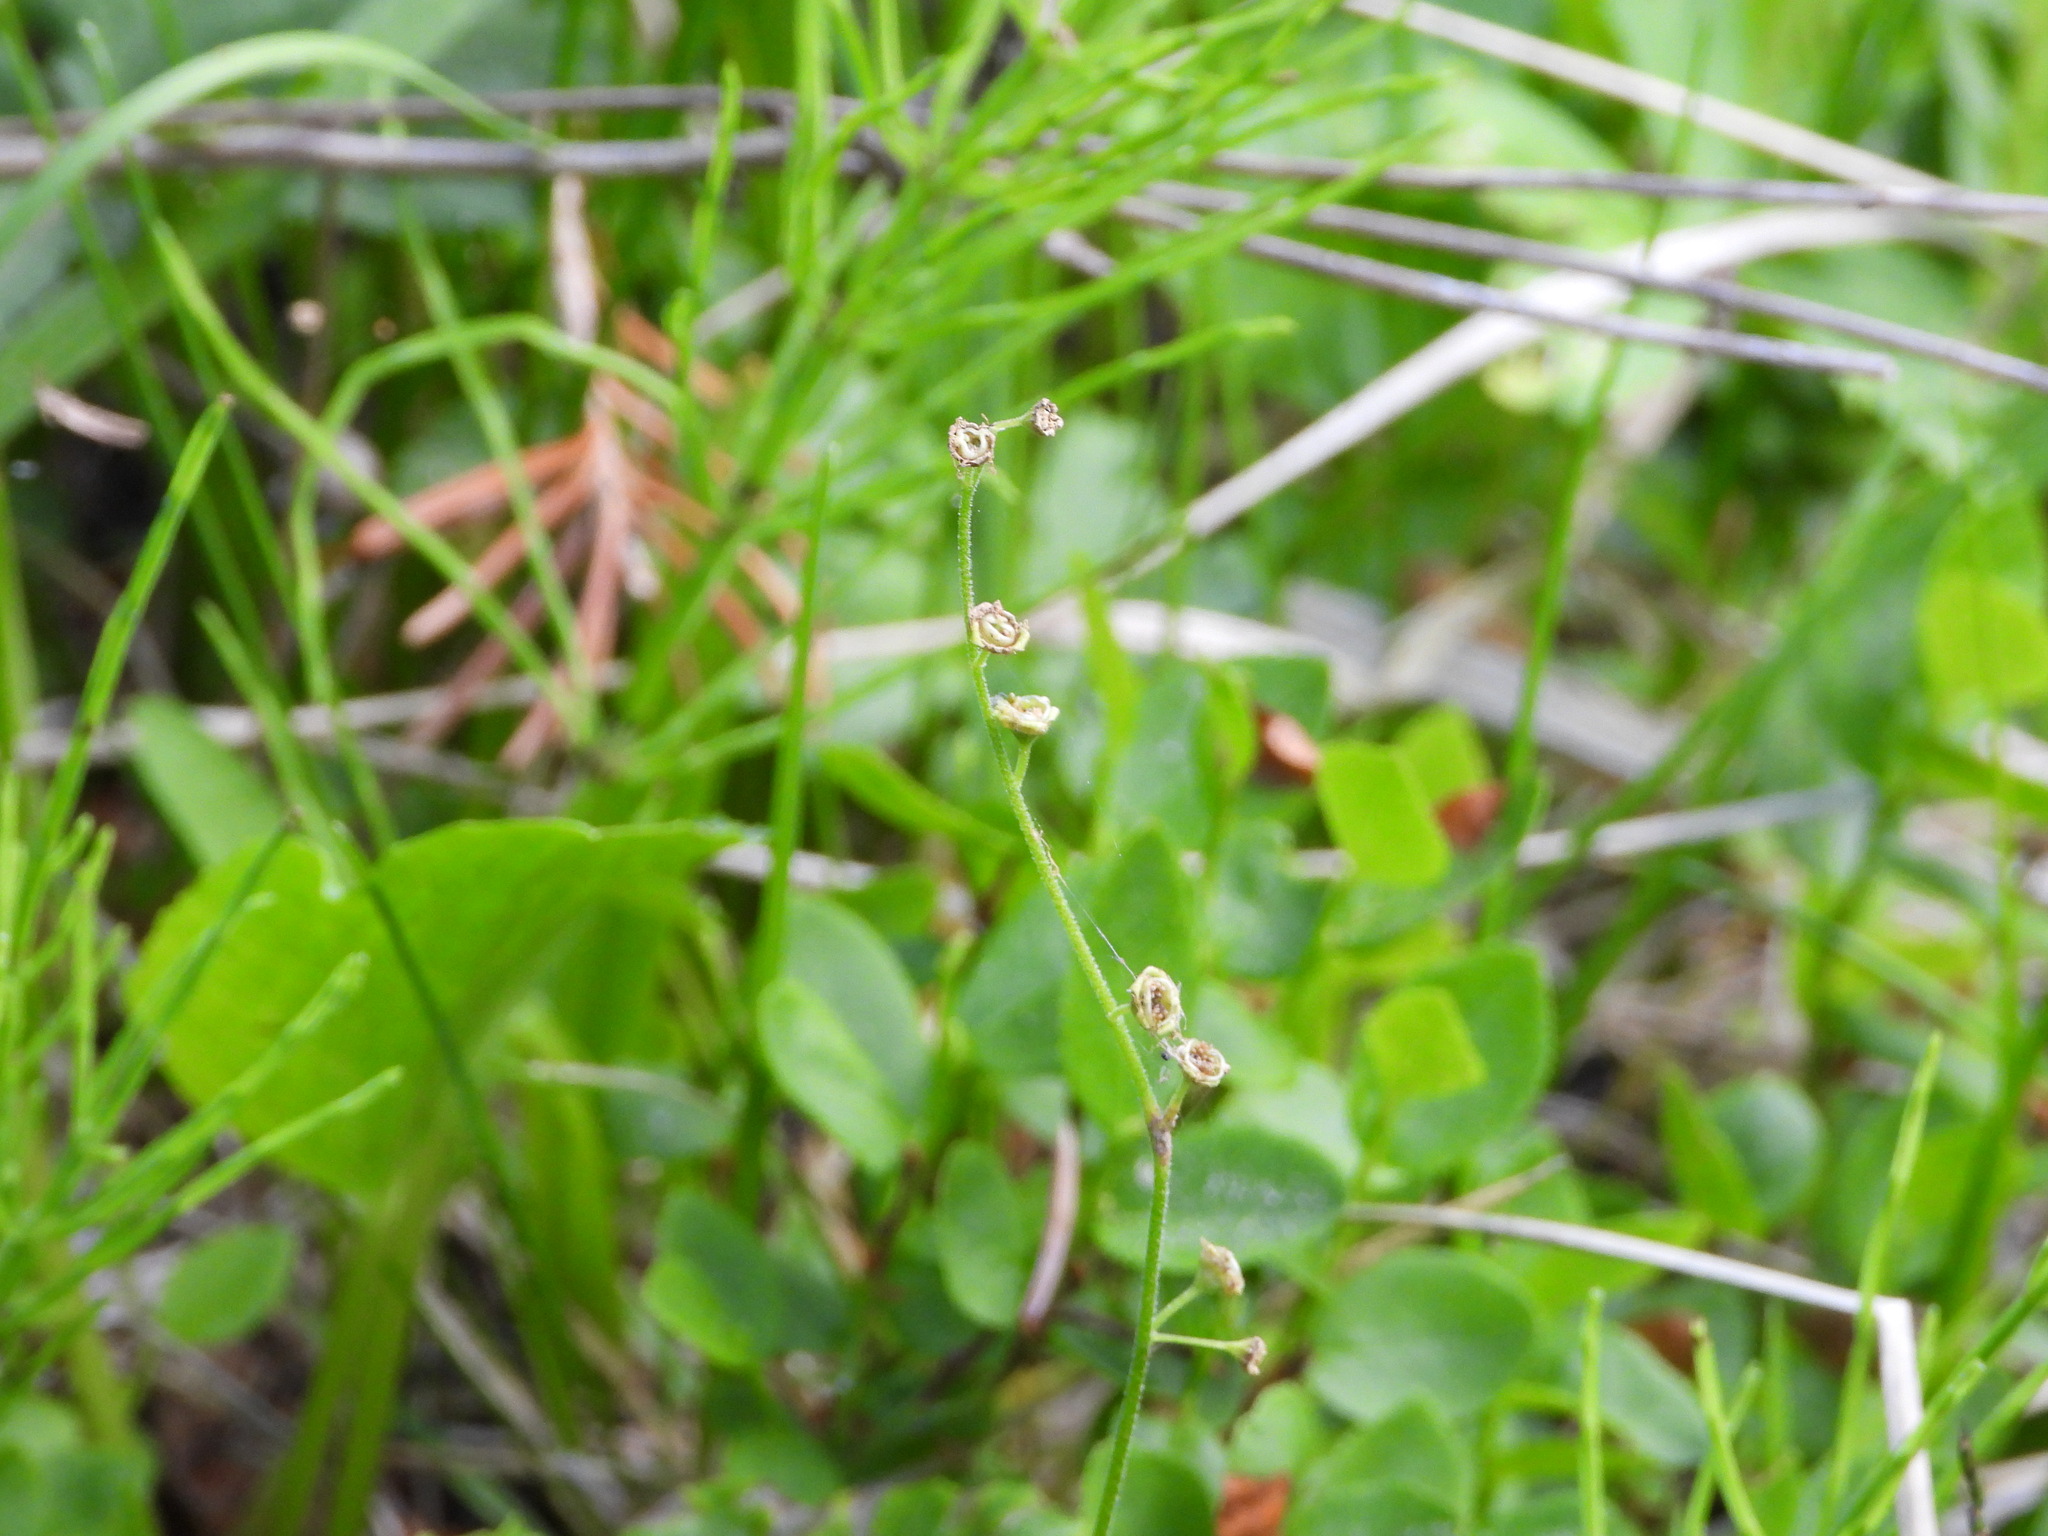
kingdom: Plantae
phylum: Tracheophyta
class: Magnoliopsida
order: Saxifragales
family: Saxifragaceae
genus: Pectiantia
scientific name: Pectiantia pentandra
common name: Alpine bishop's-cap
